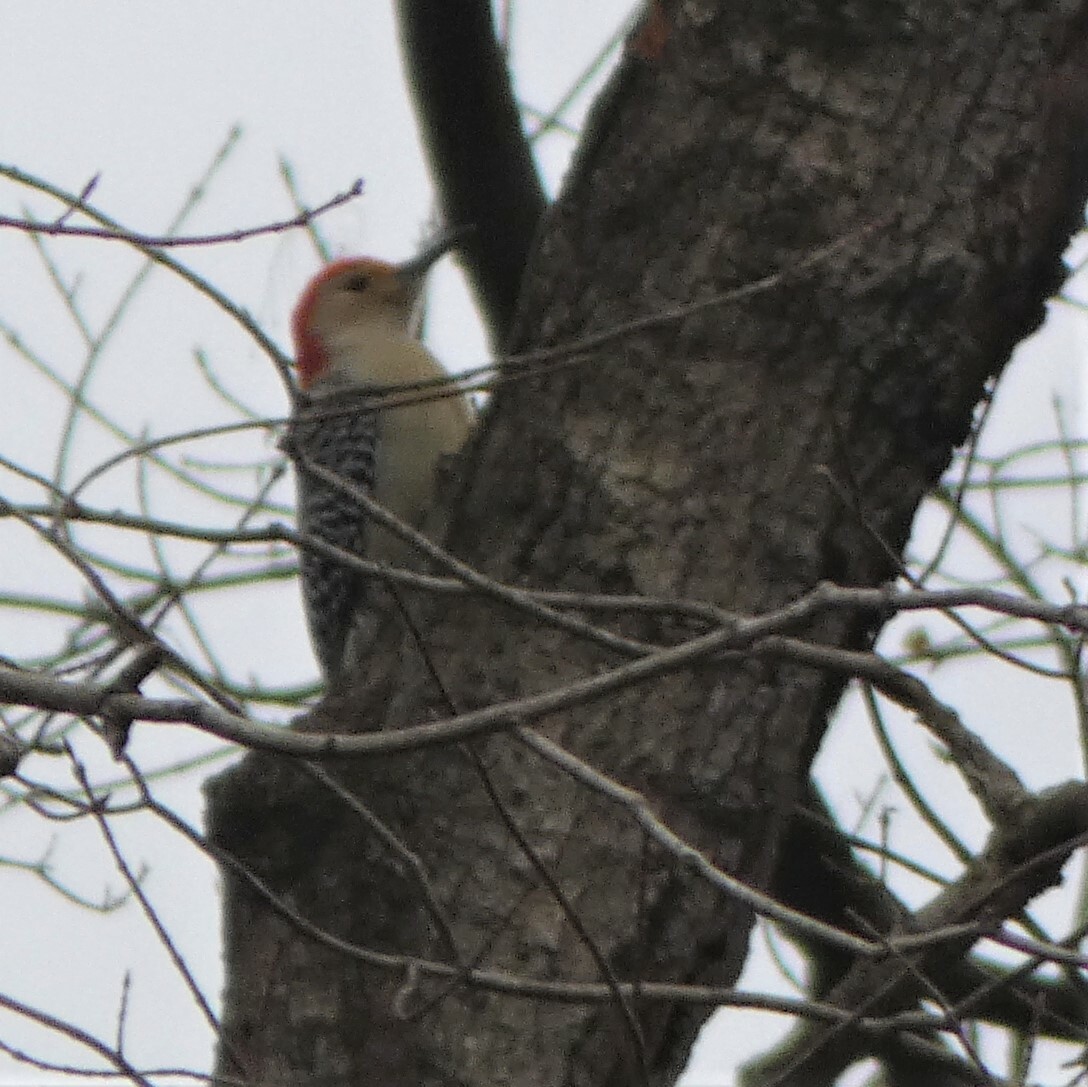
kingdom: Animalia
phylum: Chordata
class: Aves
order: Piciformes
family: Picidae
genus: Melanerpes
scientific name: Melanerpes carolinus
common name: Red-bellied woodpecker
